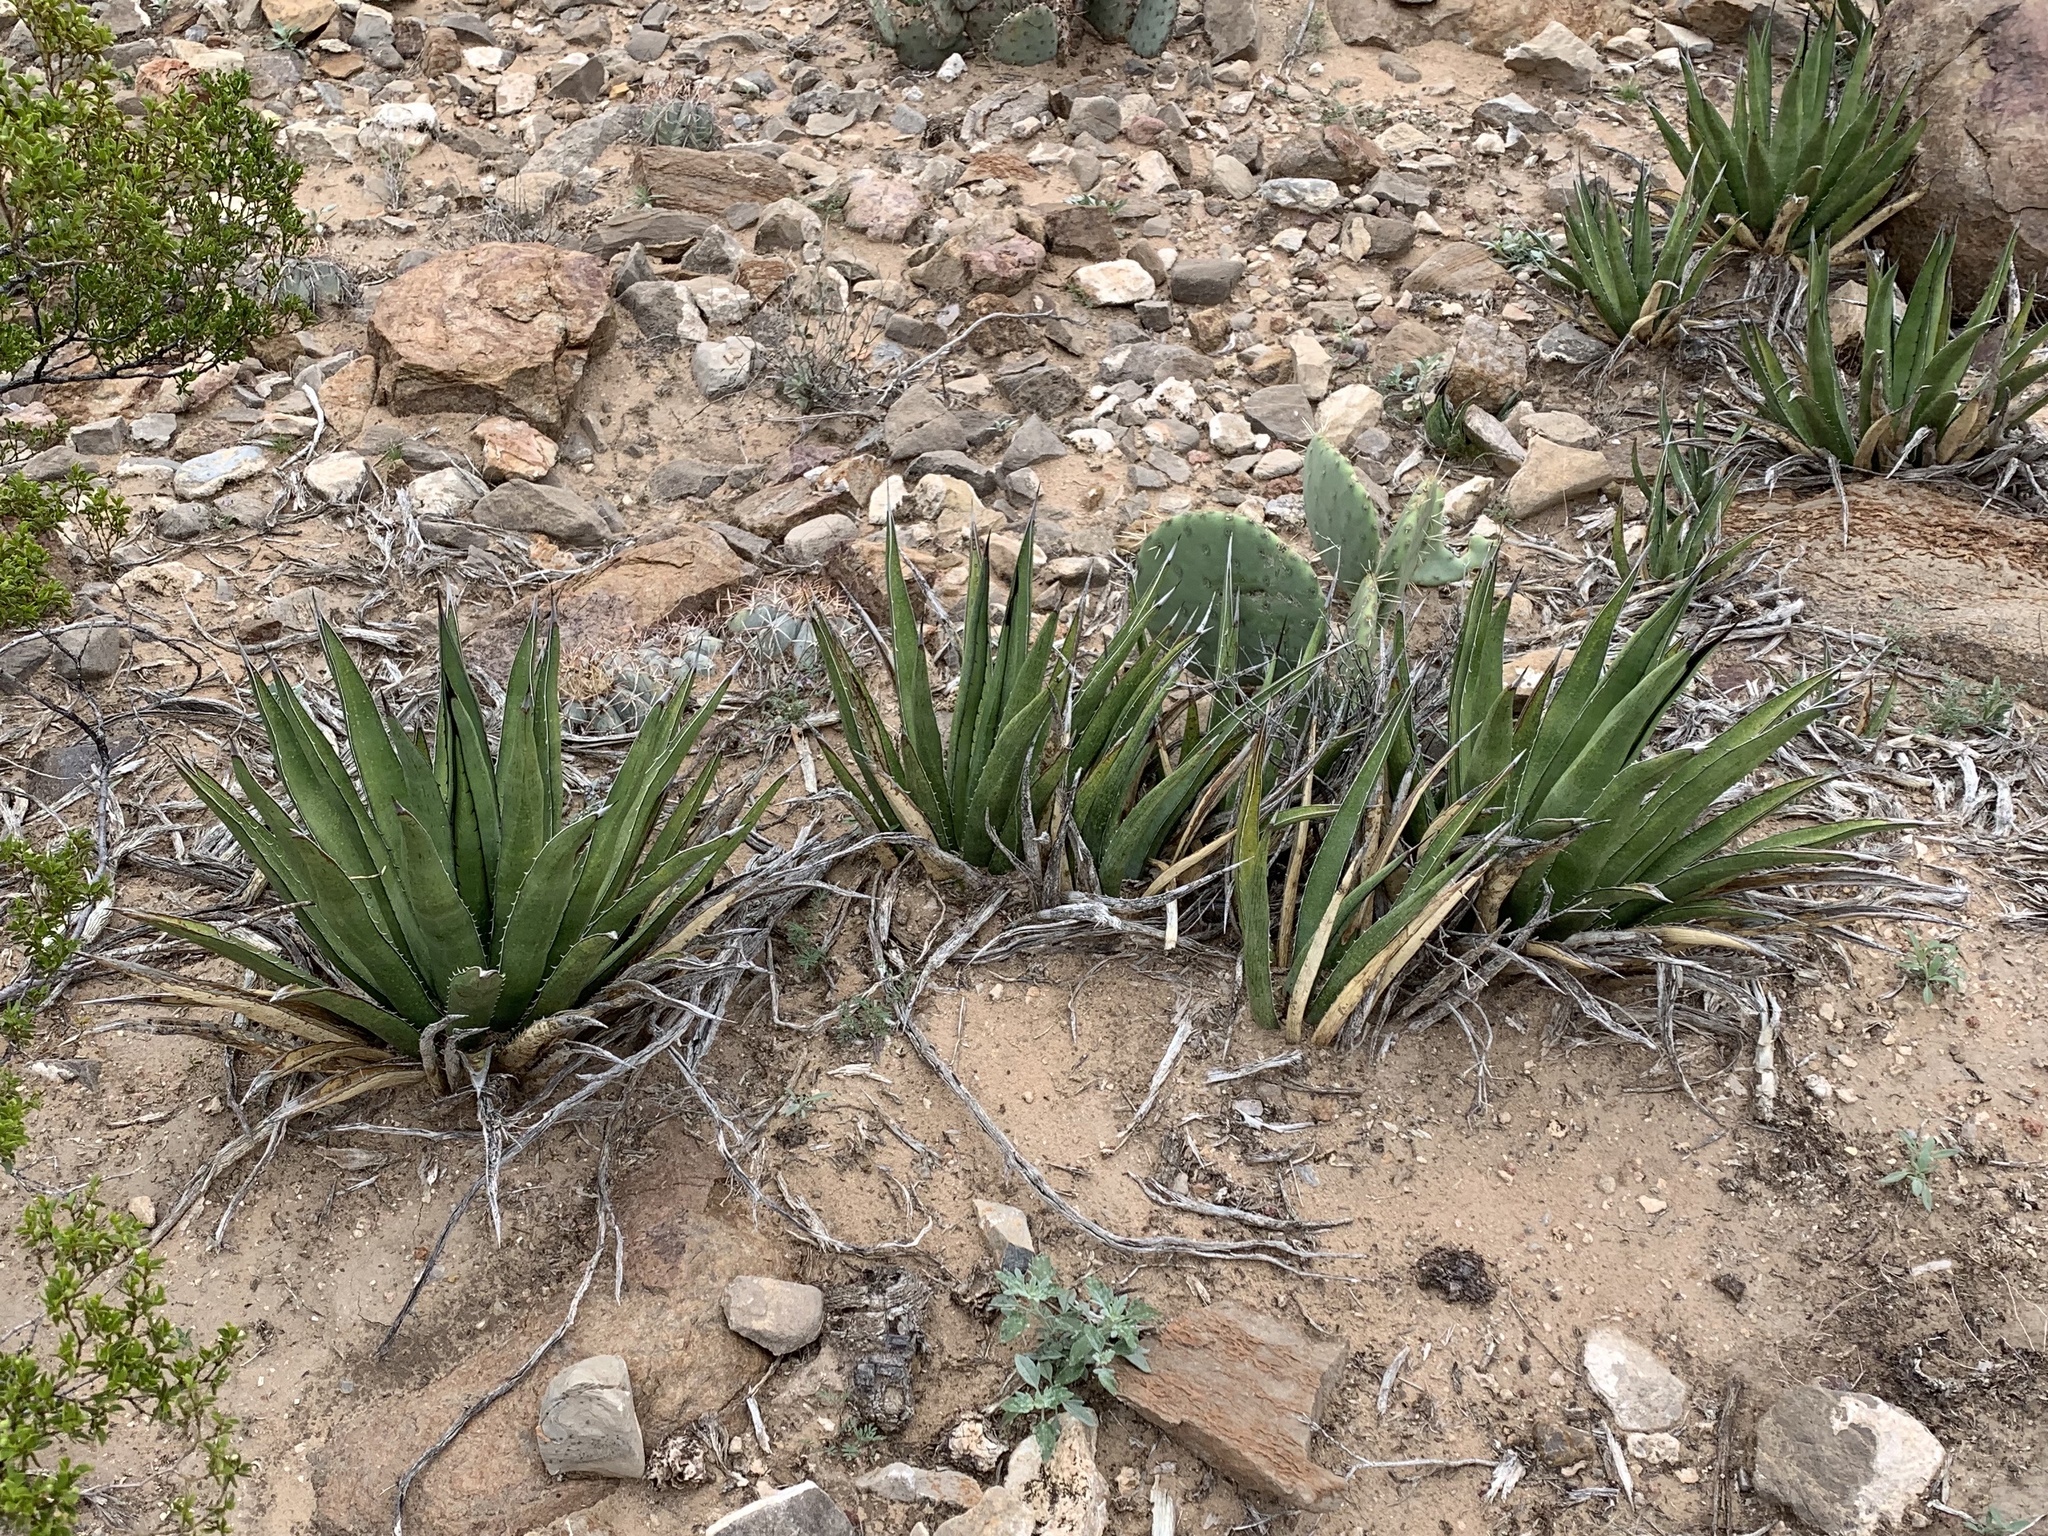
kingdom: Plantae
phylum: Tracheophyta
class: Liliopsida
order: Asparagales
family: Asparagaceae
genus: Agave
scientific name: Agave lechuguilla
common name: Lecheguilla agave
